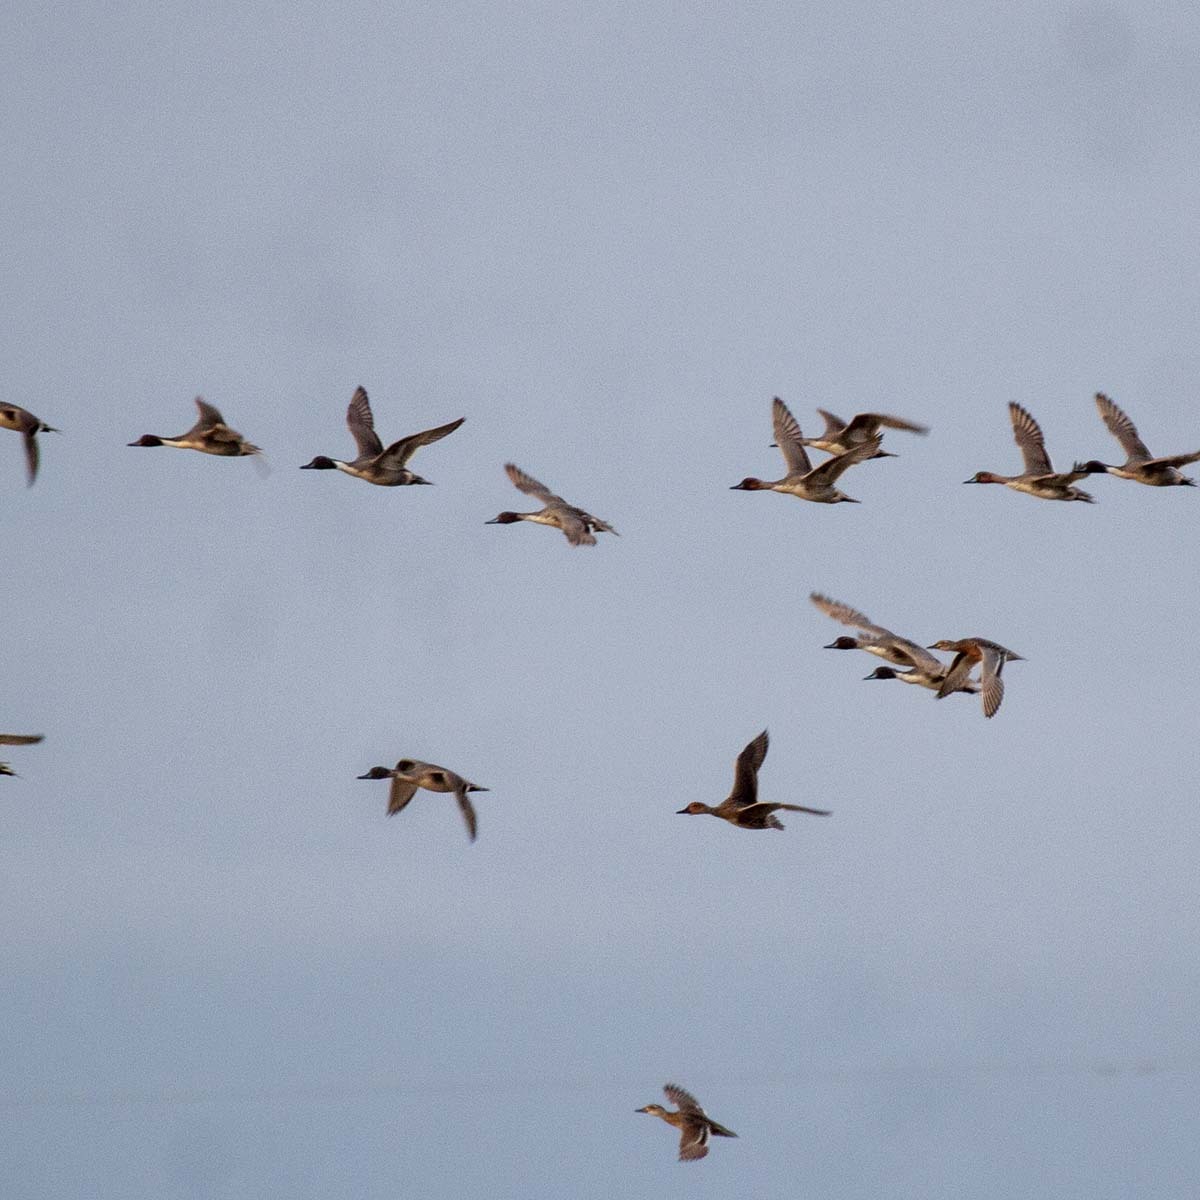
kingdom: Animalia
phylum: Chordata
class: Aves
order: Anseriformes
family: Anatidae
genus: Anas
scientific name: Anas acuta
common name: Northern pintail
